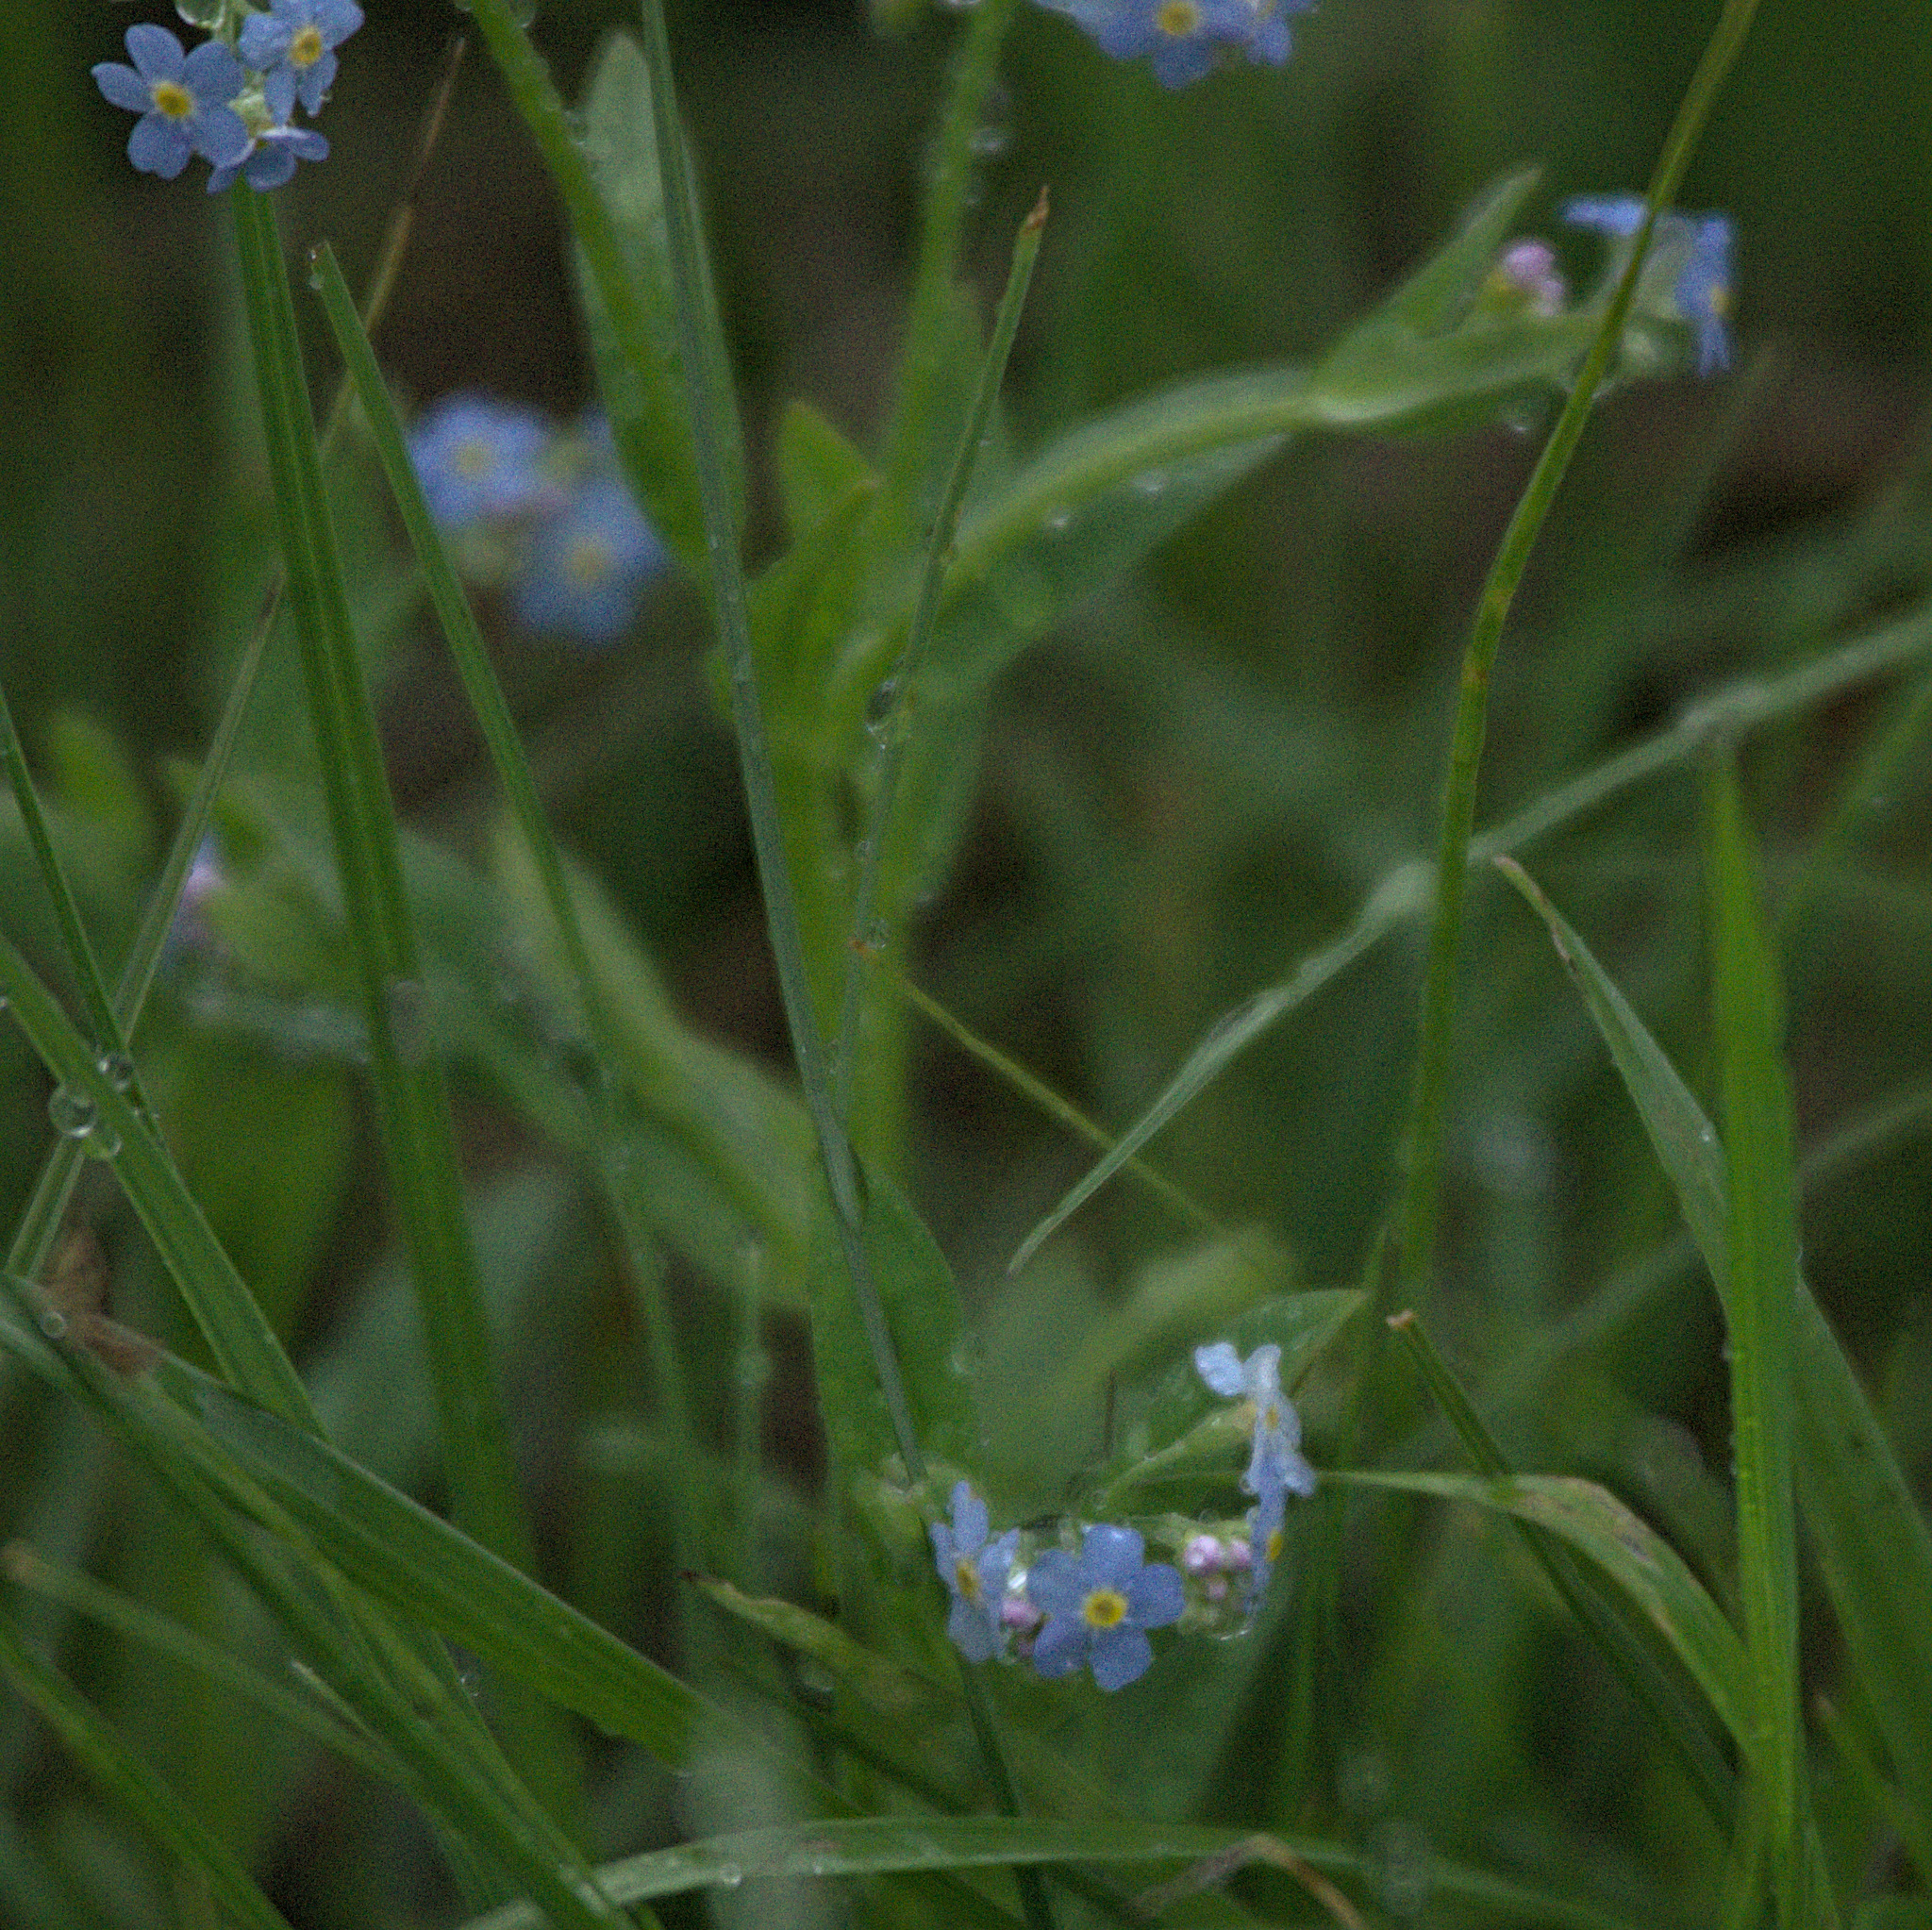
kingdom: Plantae
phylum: Tracheophyta
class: Magnoliopsida
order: Boraginales
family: Boraginaceae
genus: Myosotis
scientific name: Myosotis scorpioides
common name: Water forget-me-not
